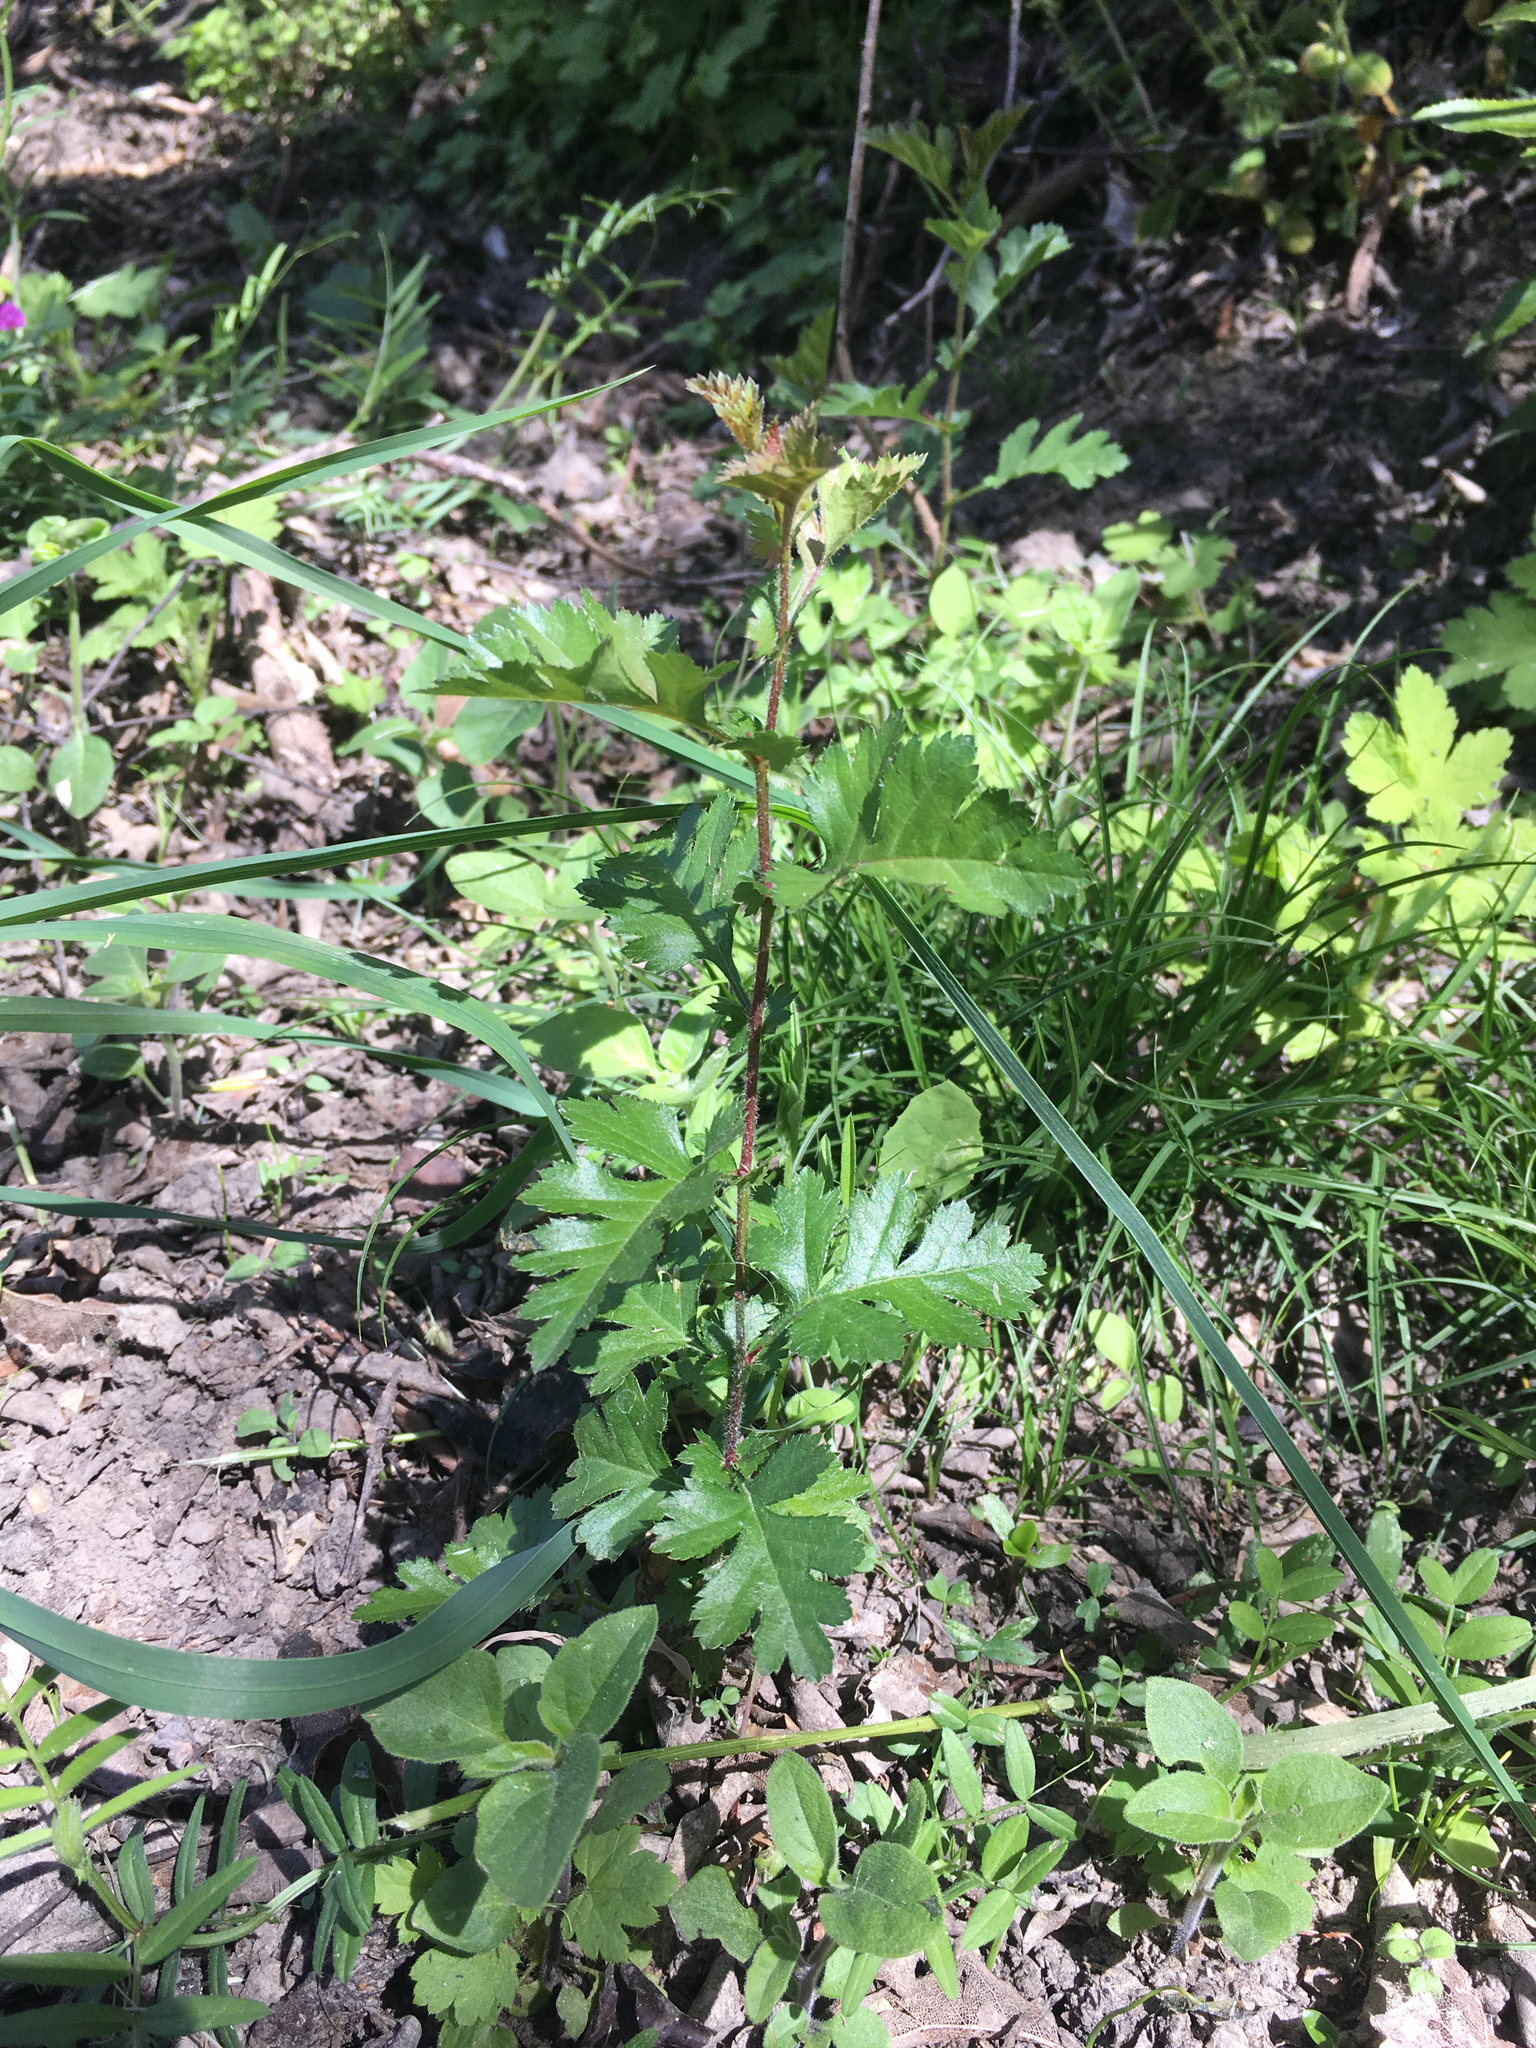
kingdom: Plantae
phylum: Tracheophyta
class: Magnoliopsida
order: Rosales
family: Rosaceae
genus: Crataegus
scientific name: Crataegus monogyna
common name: Hawthorn
